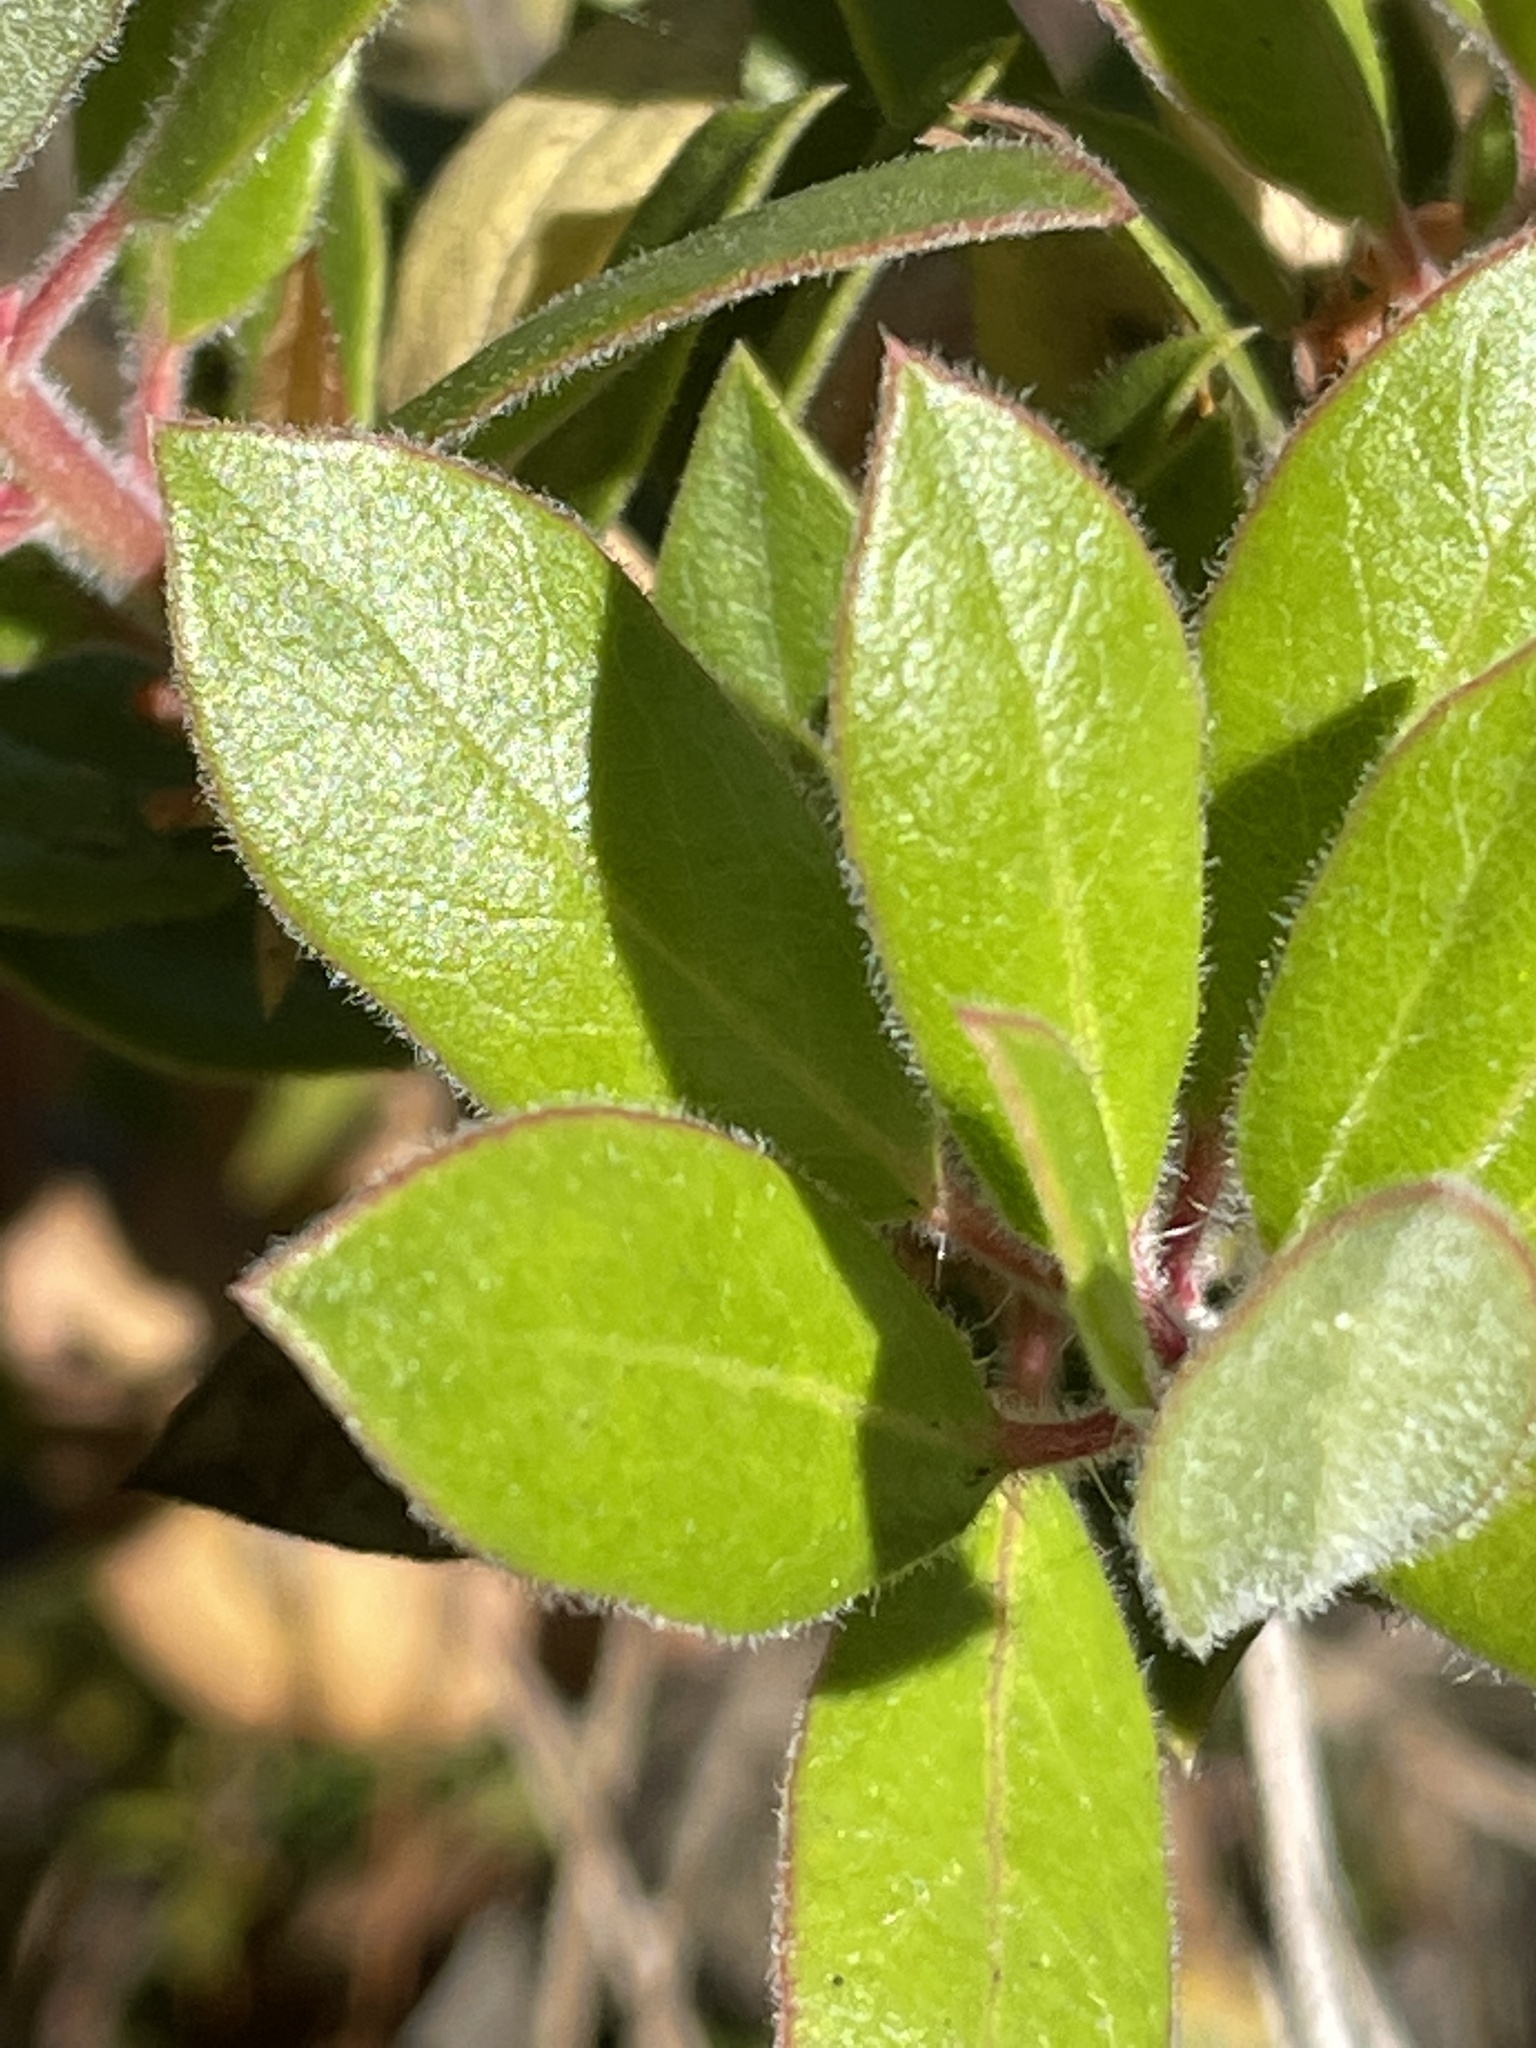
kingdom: Plantae
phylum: Tracheophyta
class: Magnoliopsida
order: Ericales
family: Ericaceae
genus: Arctostaphylos
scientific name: Arctostaphylos tomentosa
